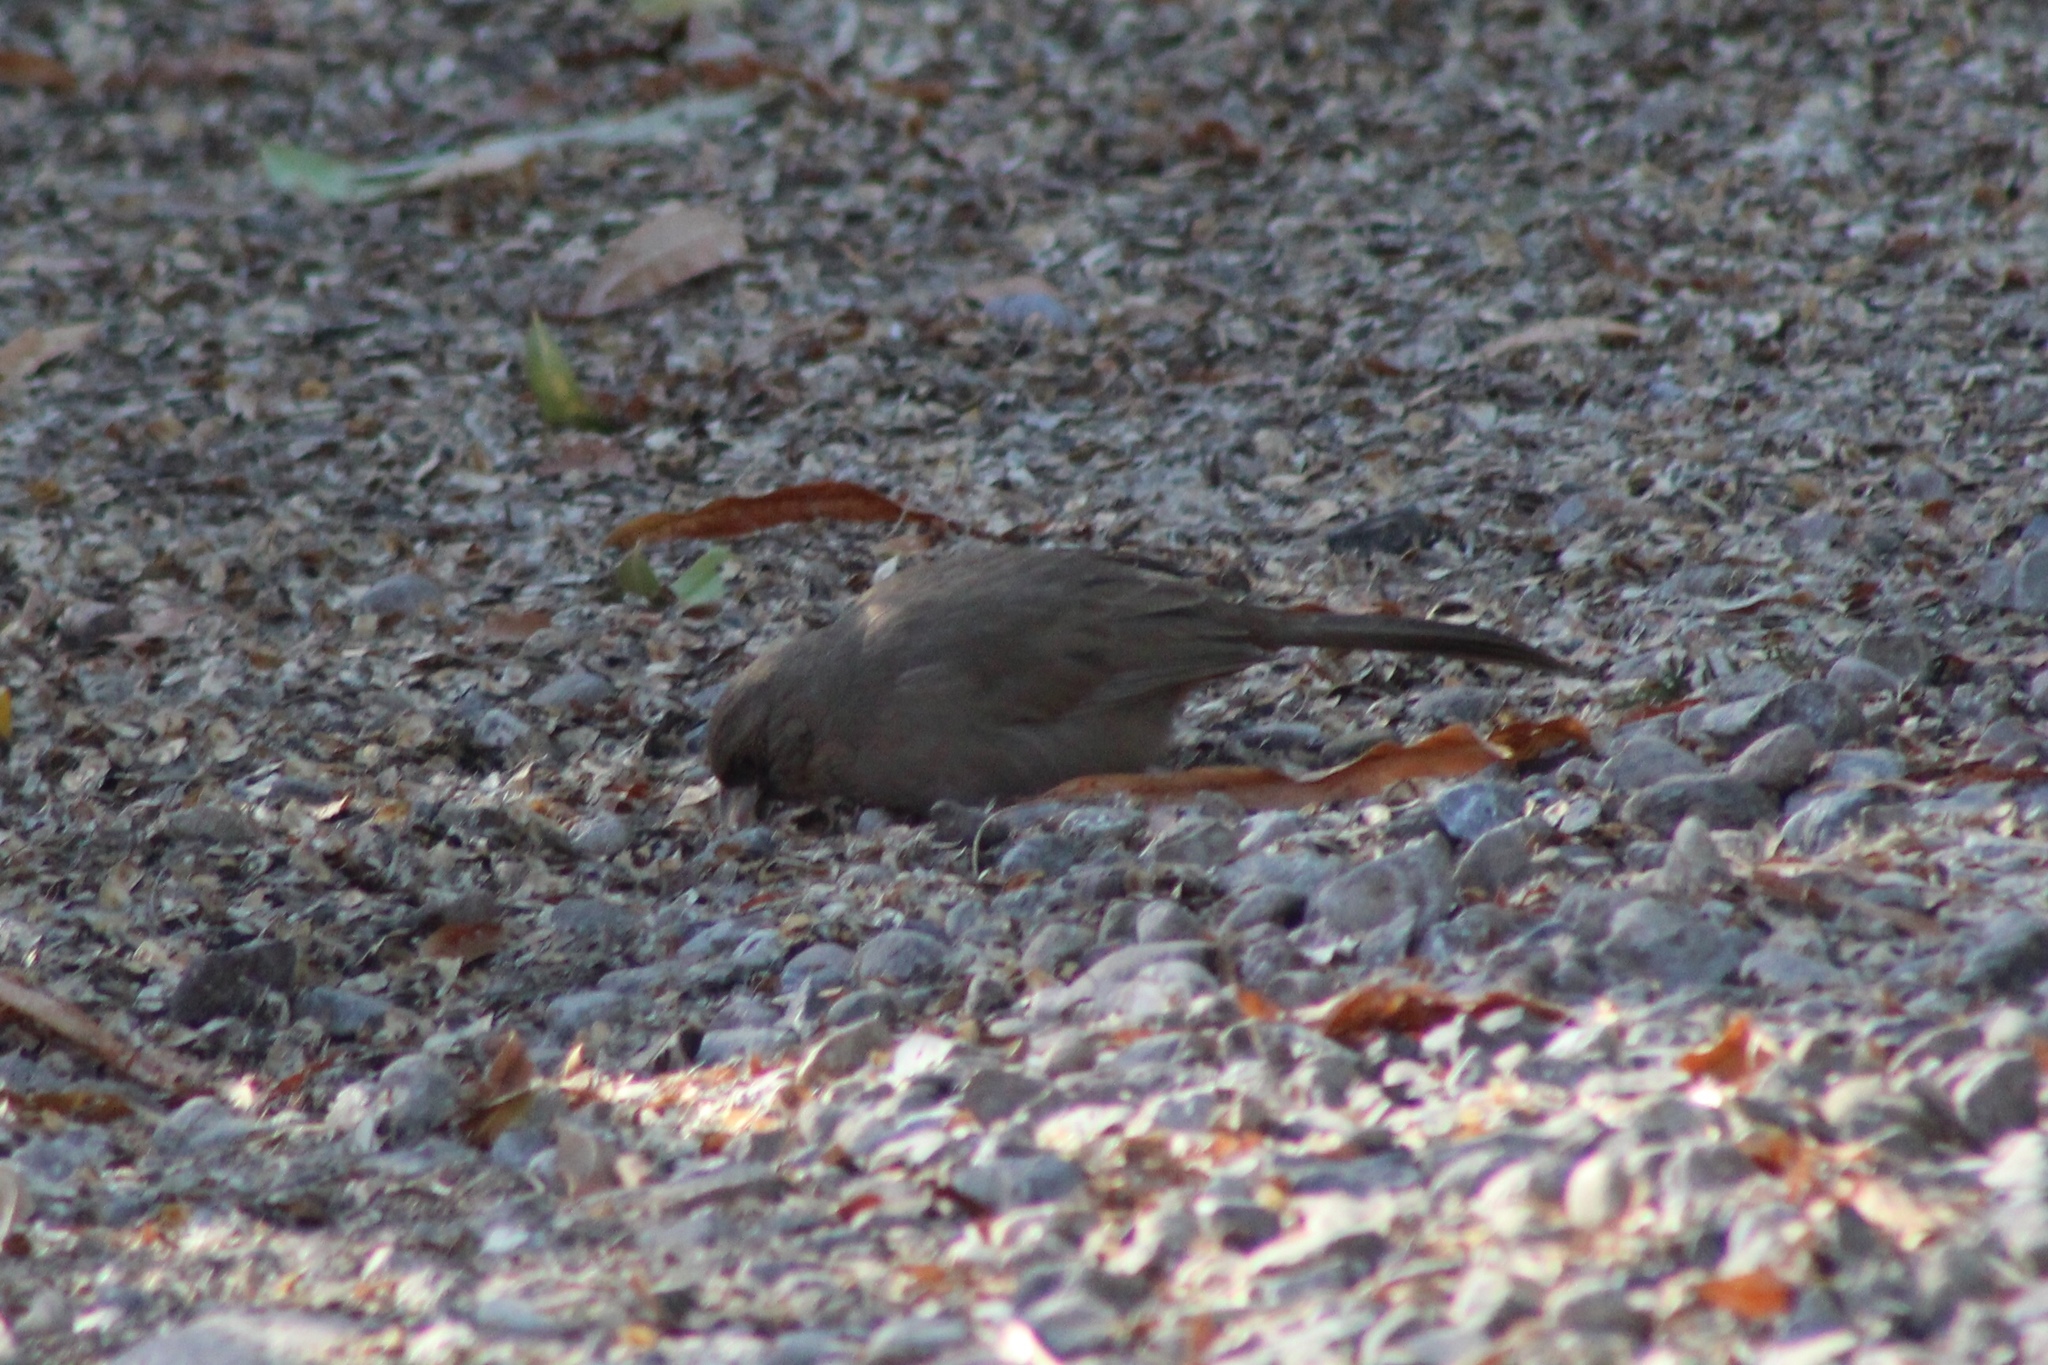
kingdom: Animalia
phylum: Chordata
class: Aves
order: Passeriformes
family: Passerellidae
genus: Melozone
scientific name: Melozone aberti
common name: Abert's towhee
